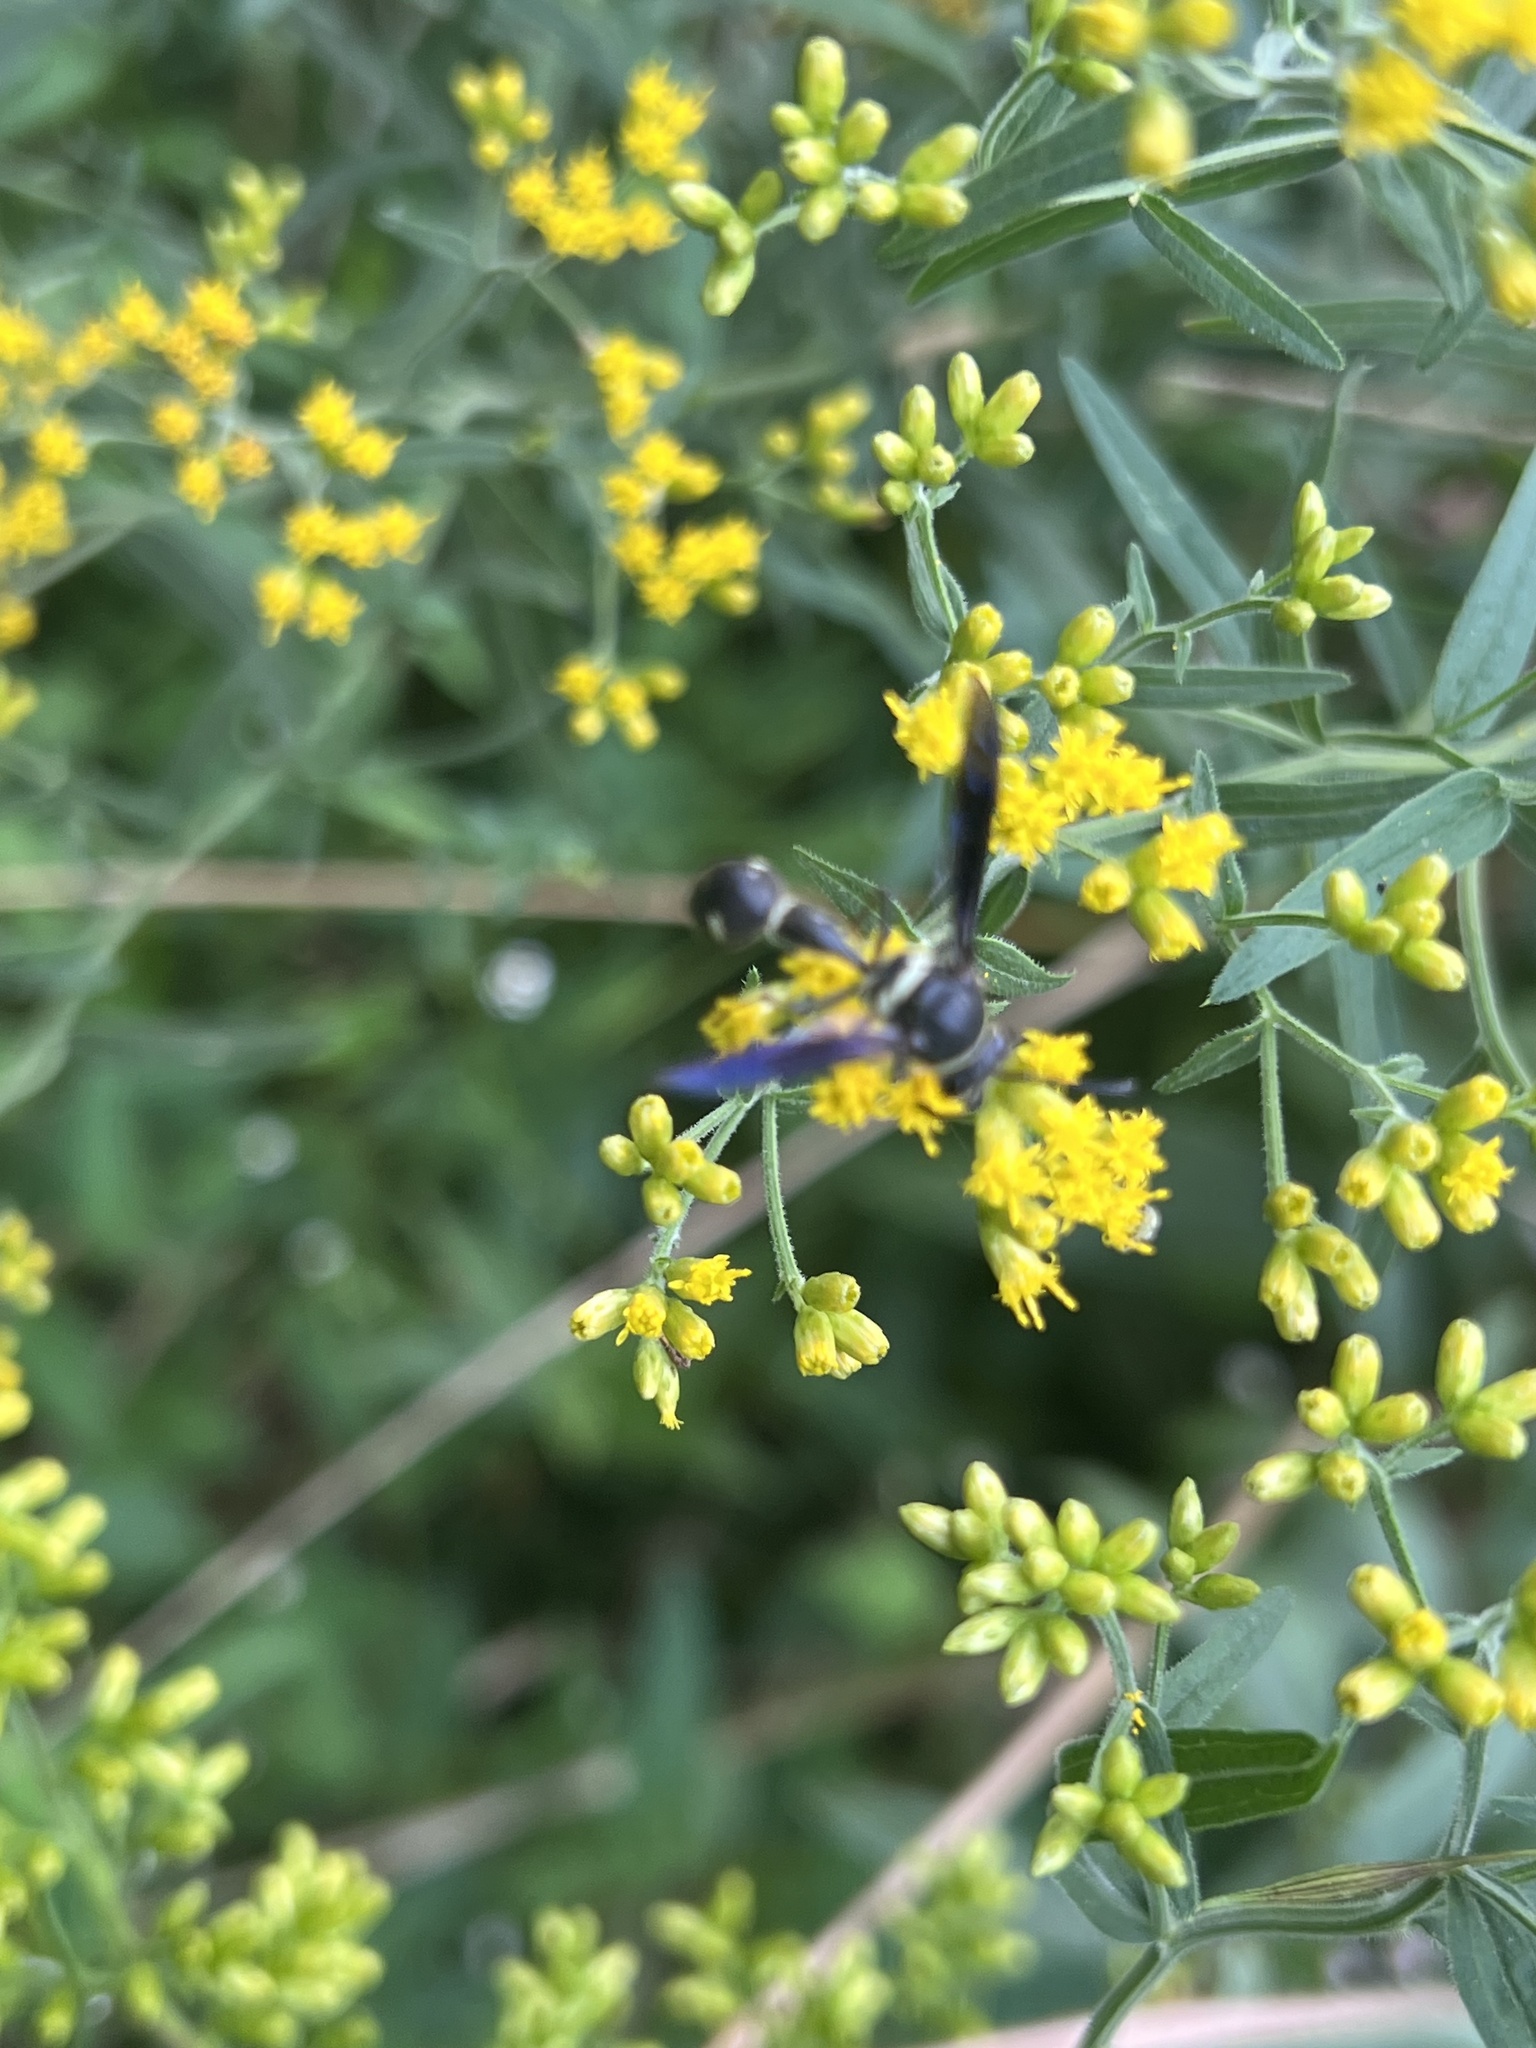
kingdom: Animalia
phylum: Arthropoda
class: Insecta
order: Hymenoptera
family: Vespidae
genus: Eumenes
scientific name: Eumenes fraternus
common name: Fraternal potter wasp
